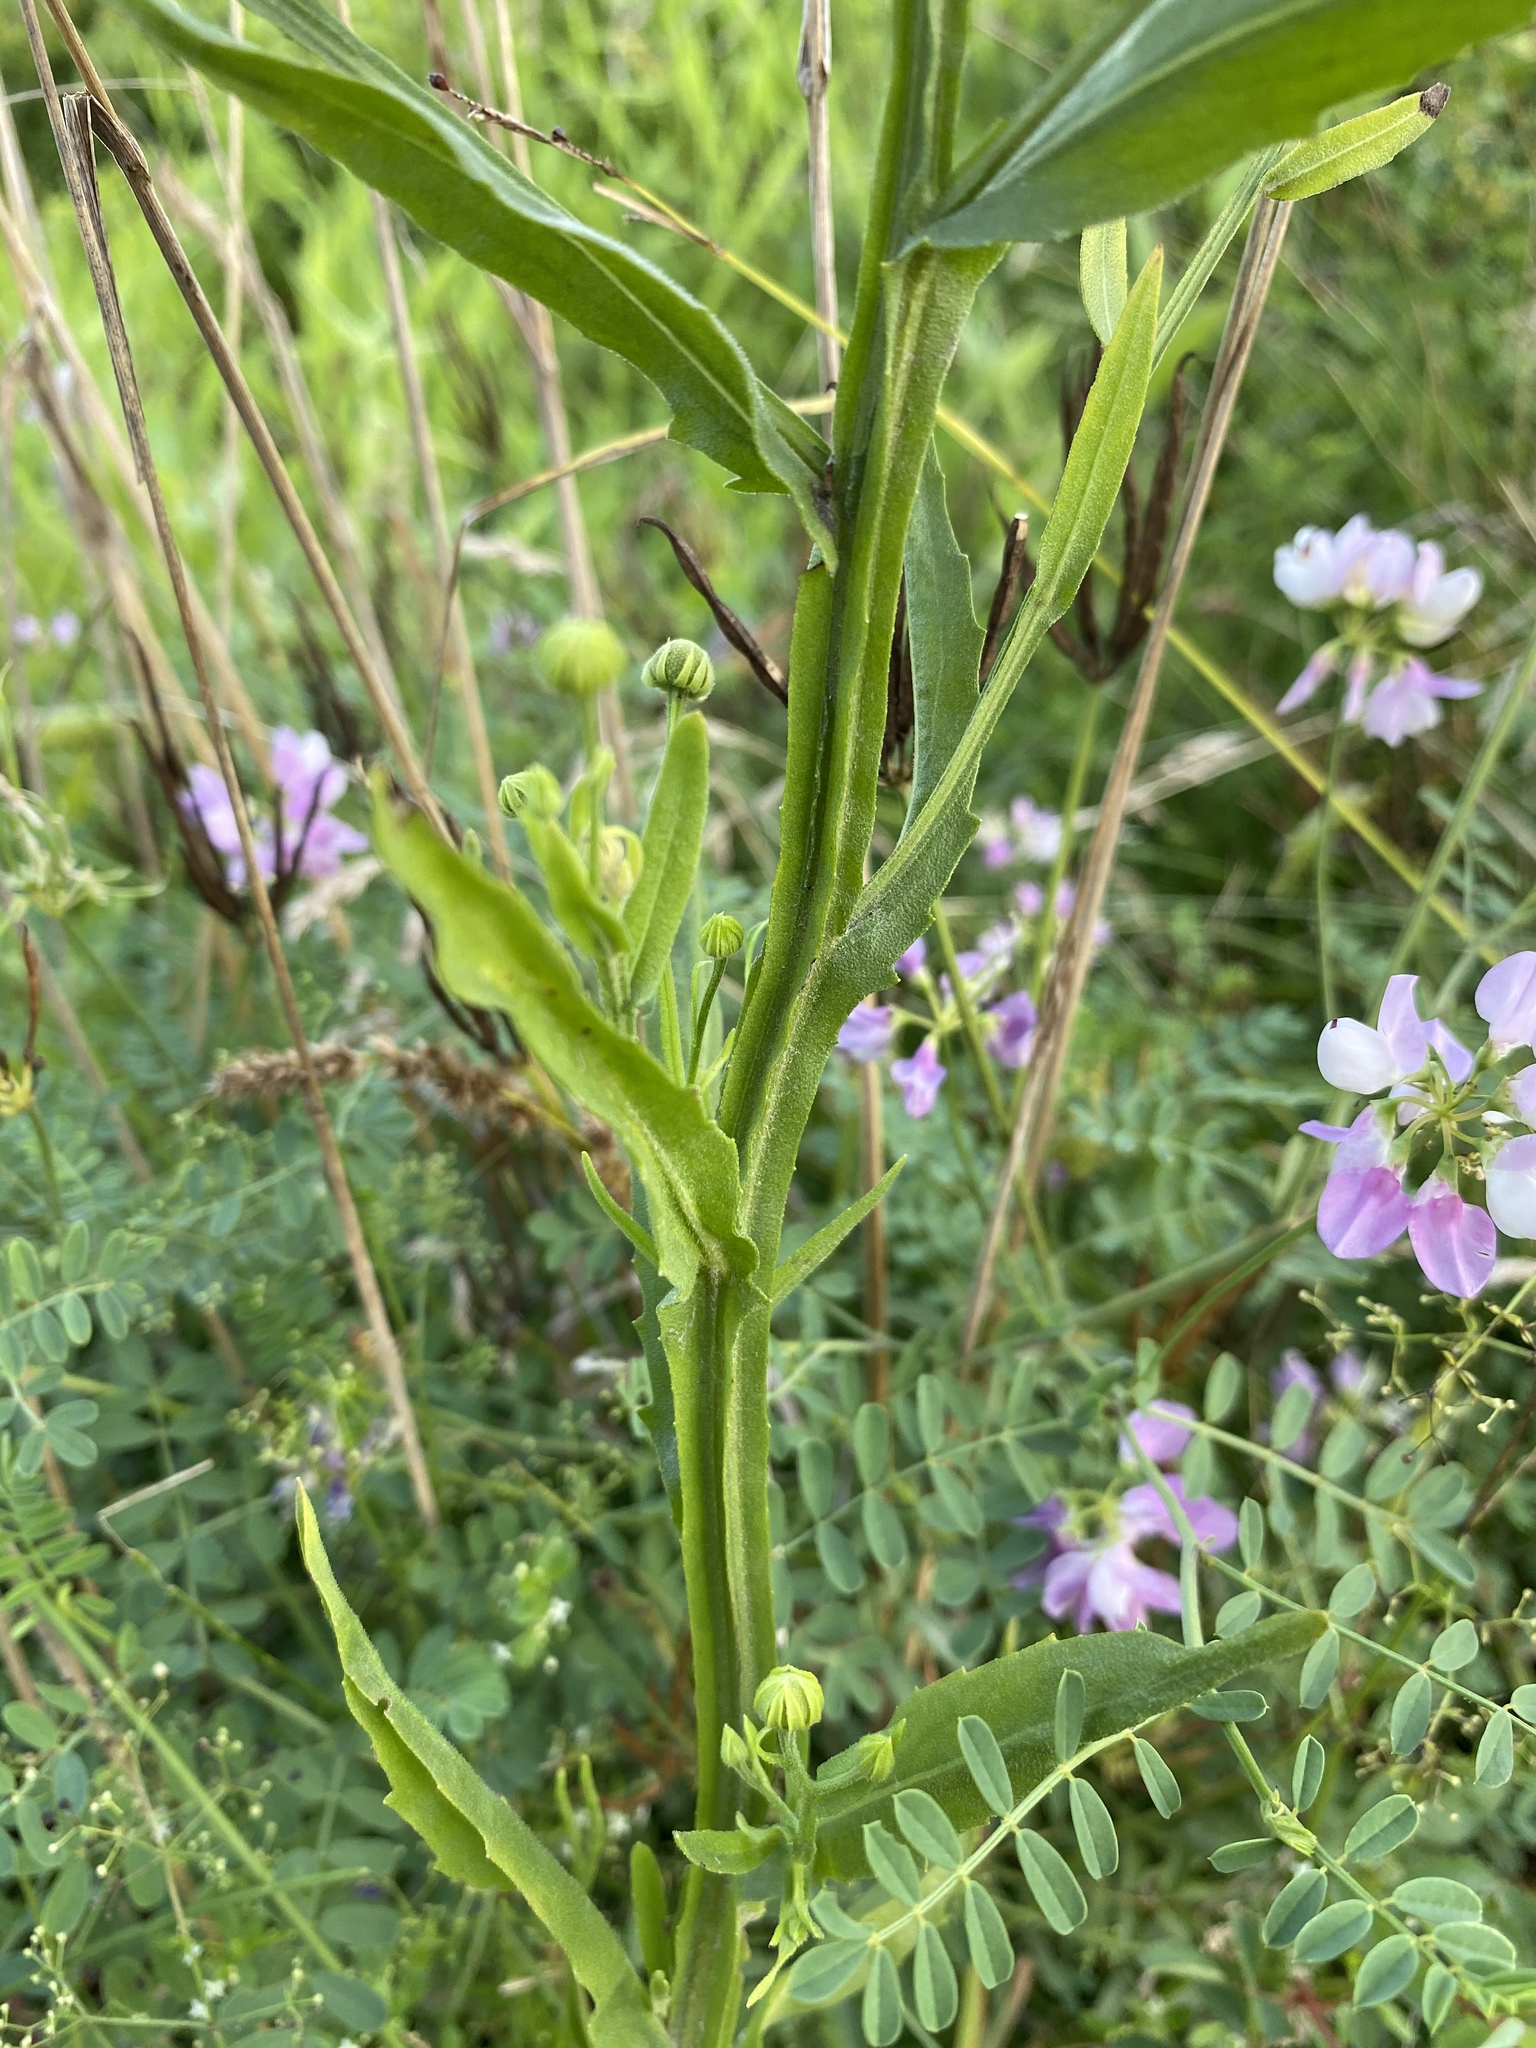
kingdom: Plantae
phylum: Tracheophyta
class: Magnoliopsida
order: Asterales
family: Asteraceae
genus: Helenium
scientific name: Helenium flexuosum
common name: Naked-flowered sneezeweed
